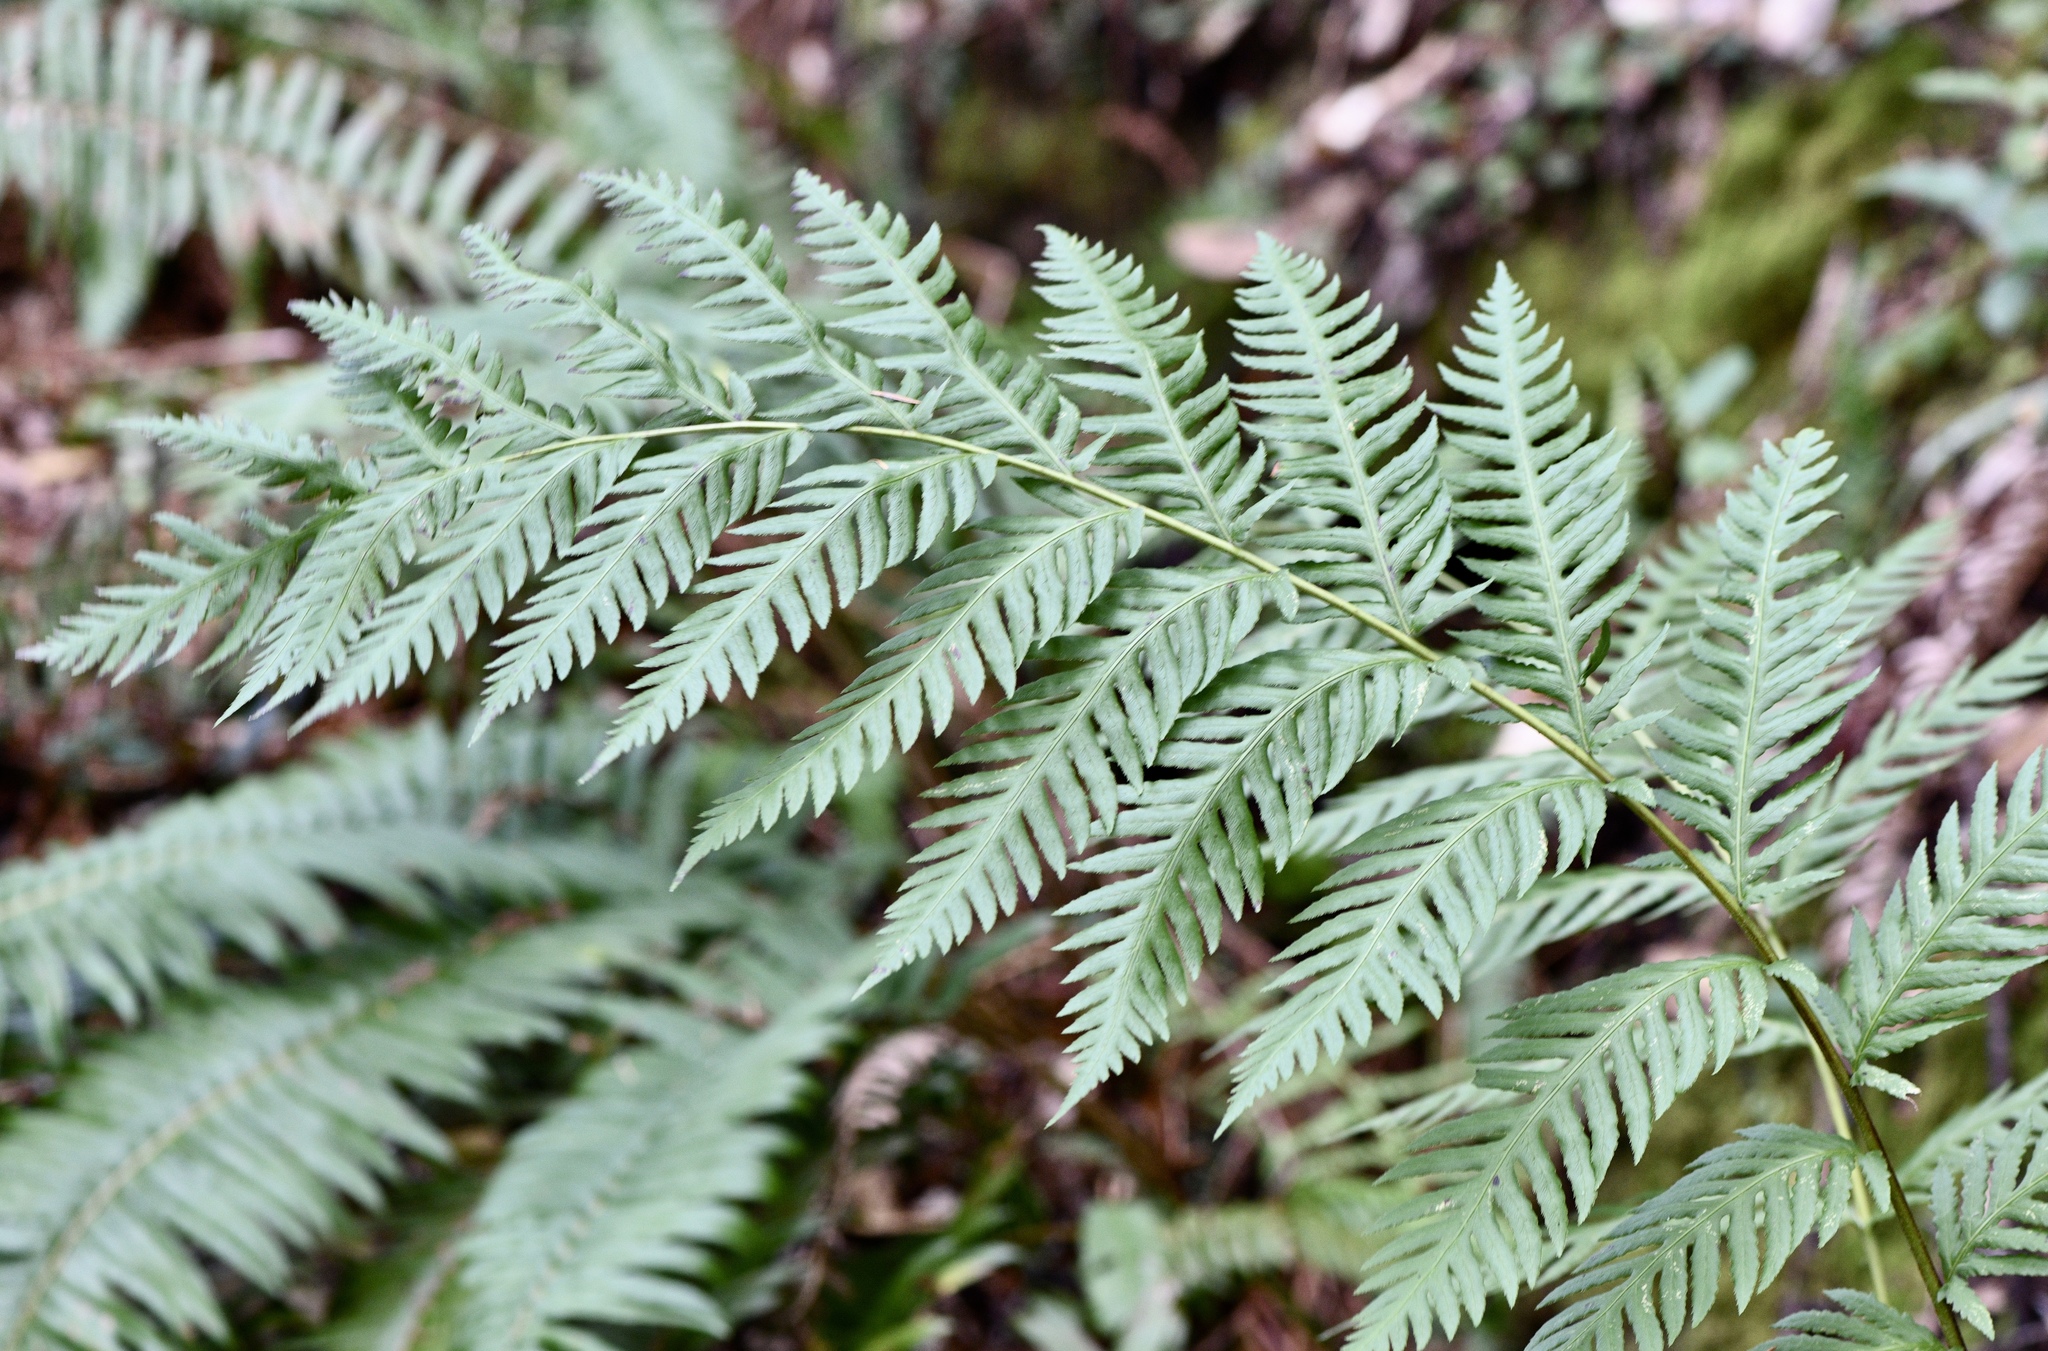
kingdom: Plantae
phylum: Tracheophyta
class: Polypodiopsida
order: Polypodiales
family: Blechnaceae
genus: Woodwardia
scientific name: Woodwardia fimbriata
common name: Giant chain fern
